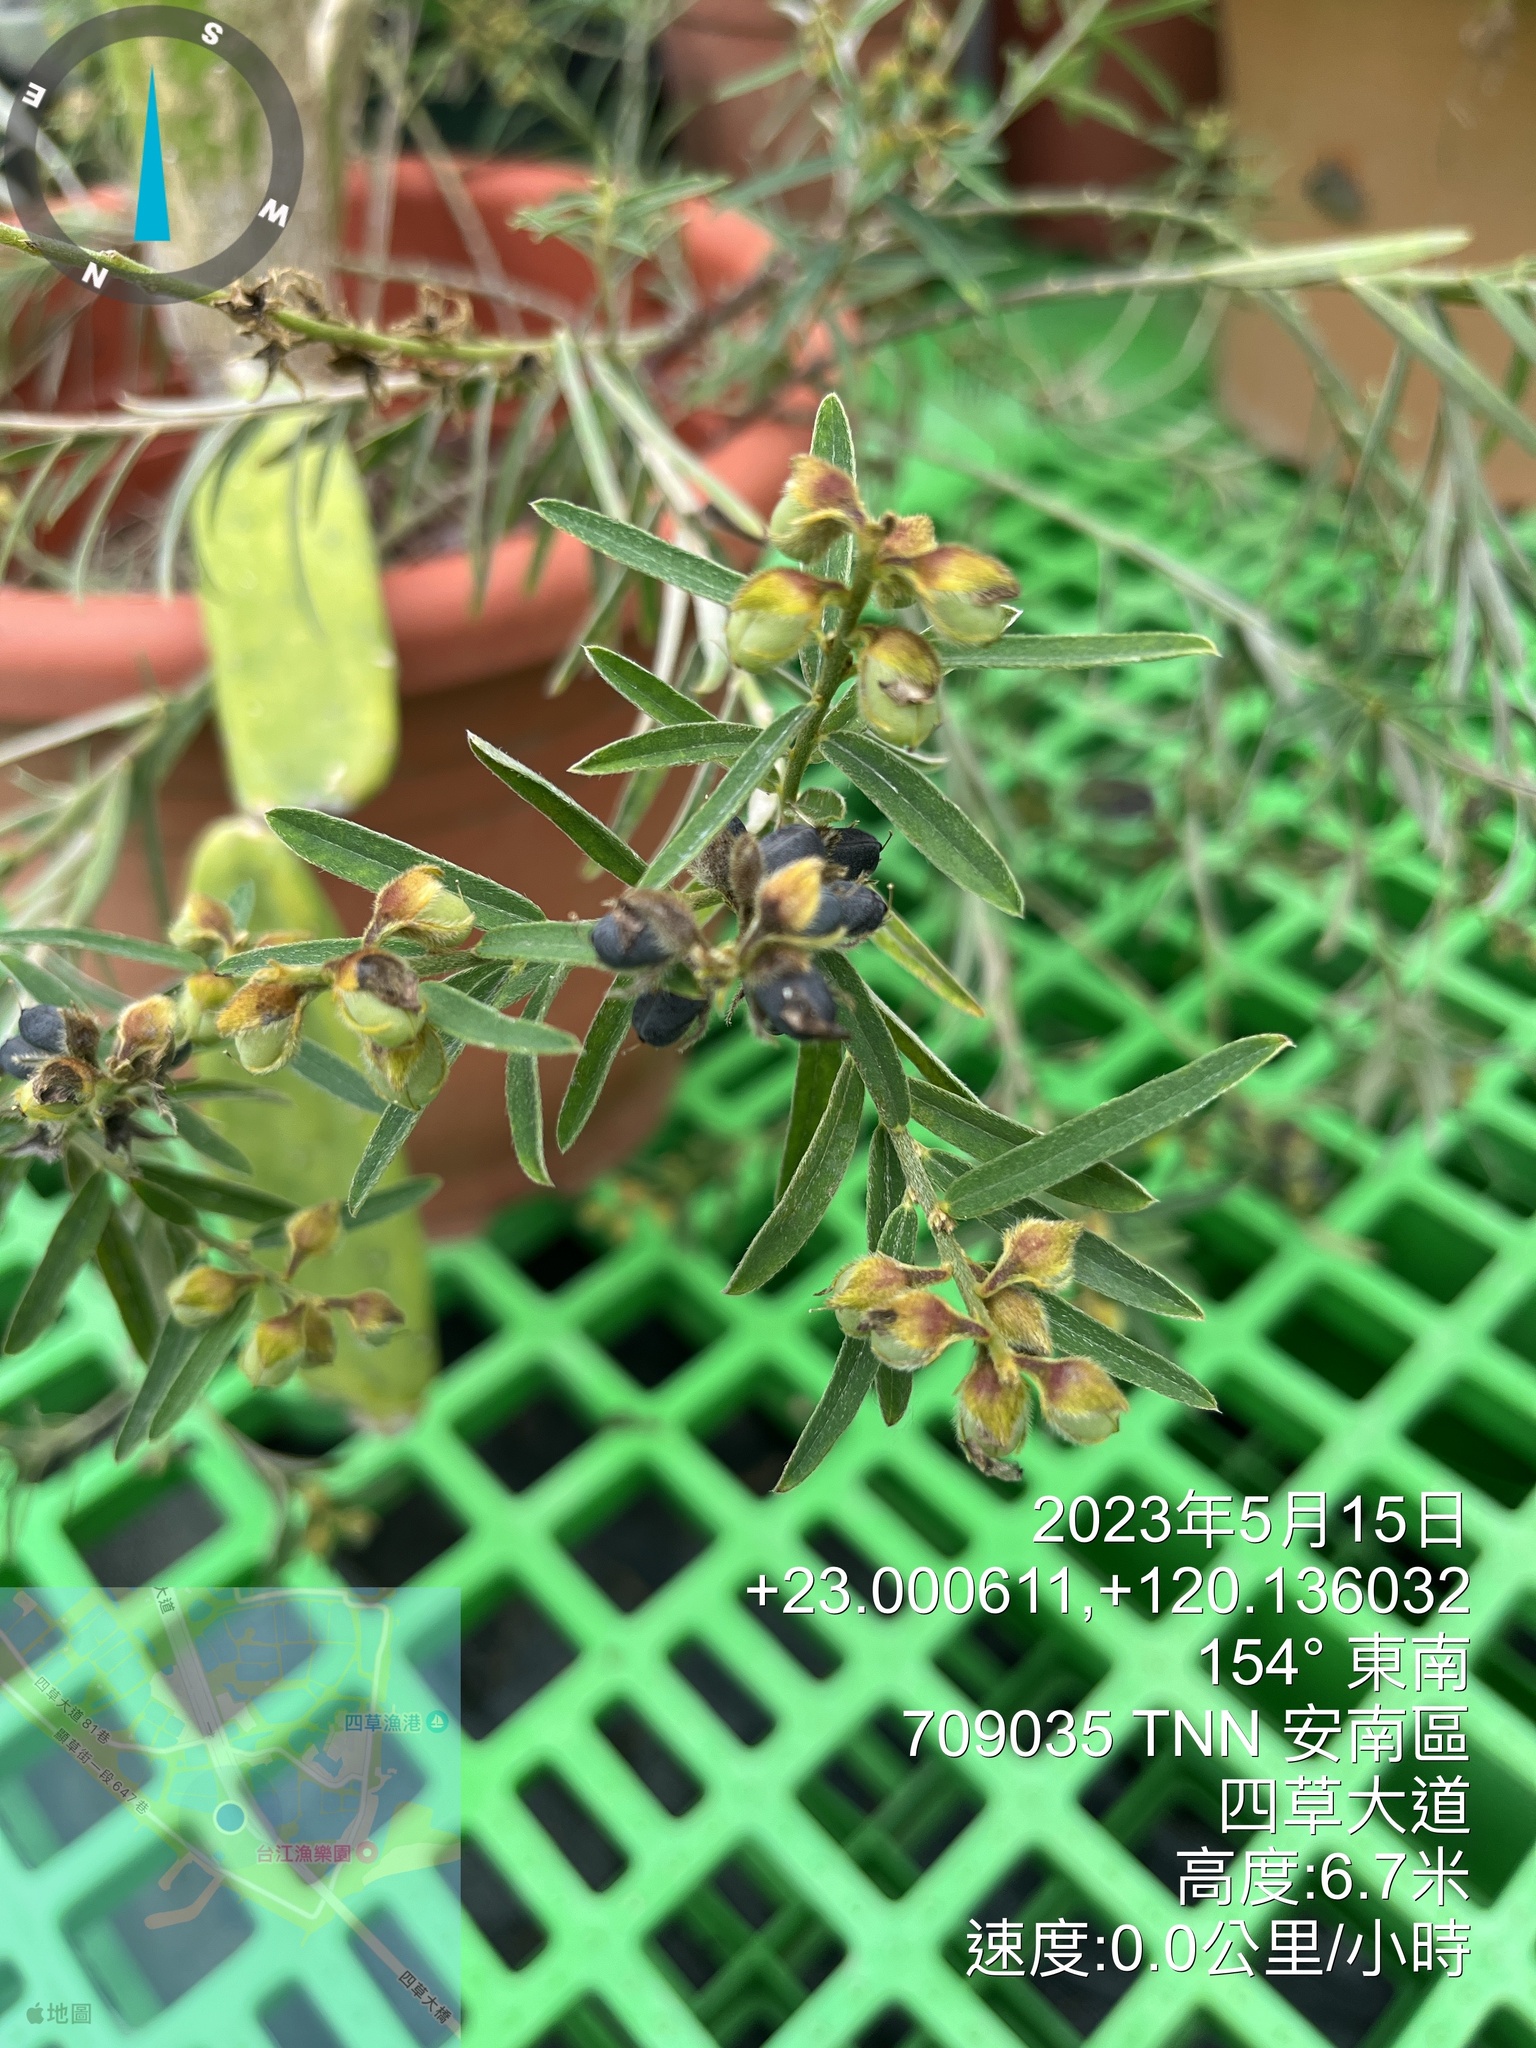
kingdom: Plantae
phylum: Tracheophyta
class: Magnoliopsida
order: Malpighiales
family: Phyllanthaceae
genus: Phyllanthus
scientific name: Phyllanthus debilis
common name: Niruri
